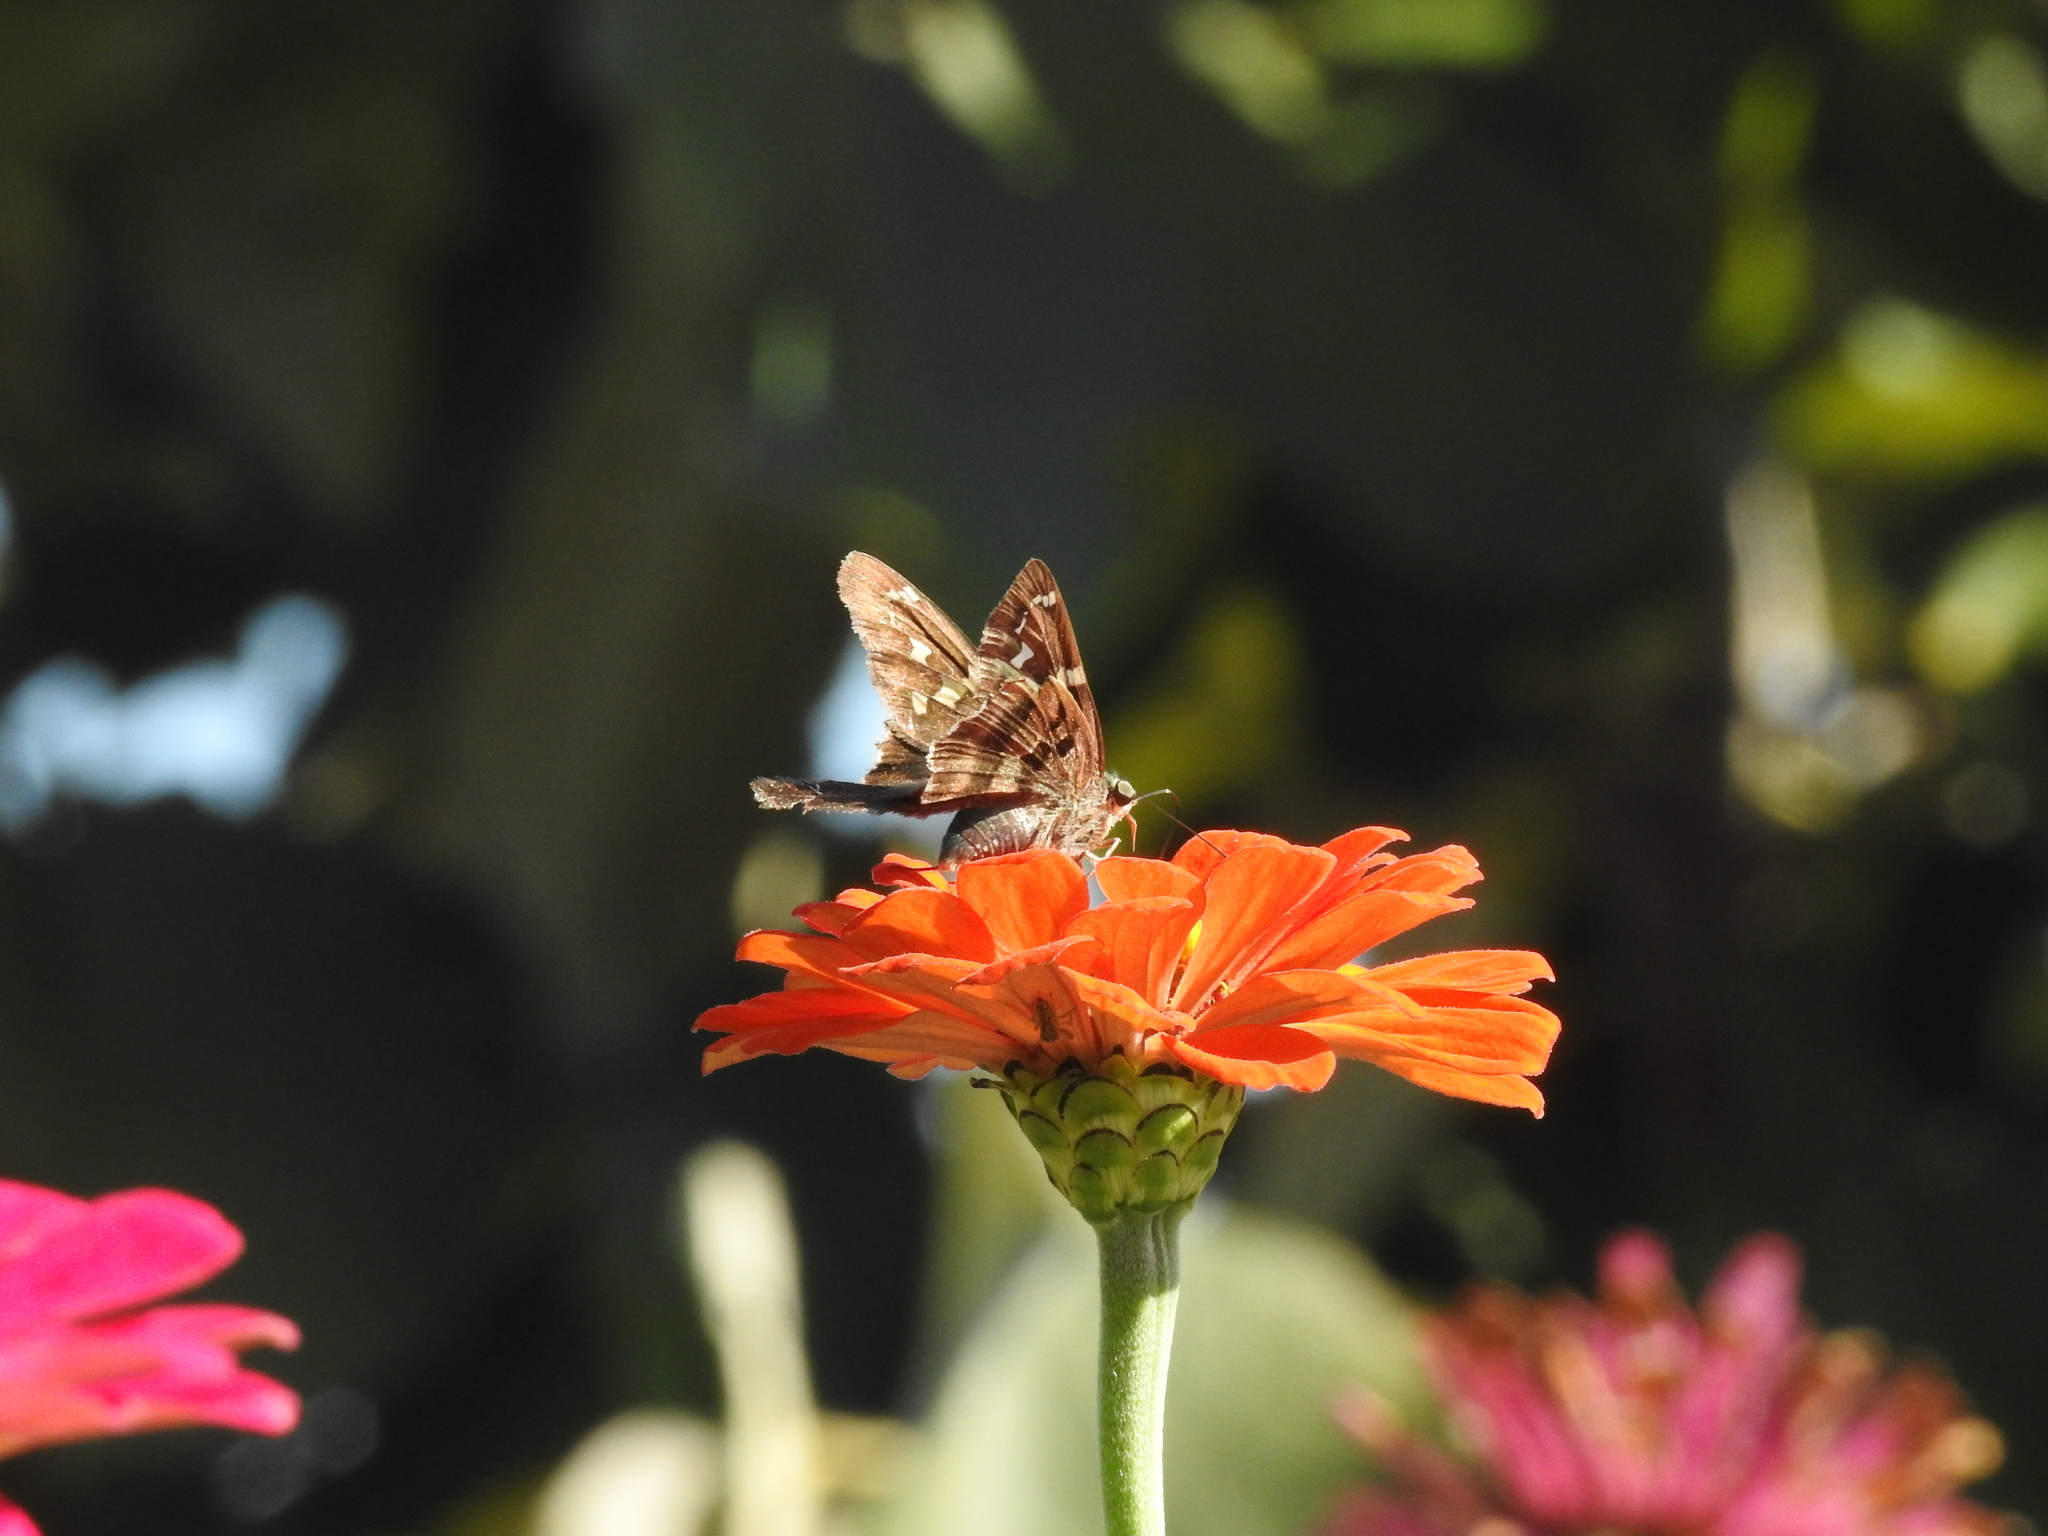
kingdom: Animalia
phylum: Arthropoda
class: Insecta
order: Lepidoptera
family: Hesperiidae
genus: Urbanus
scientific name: Urbanus proteus
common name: Long-tailed skipper
